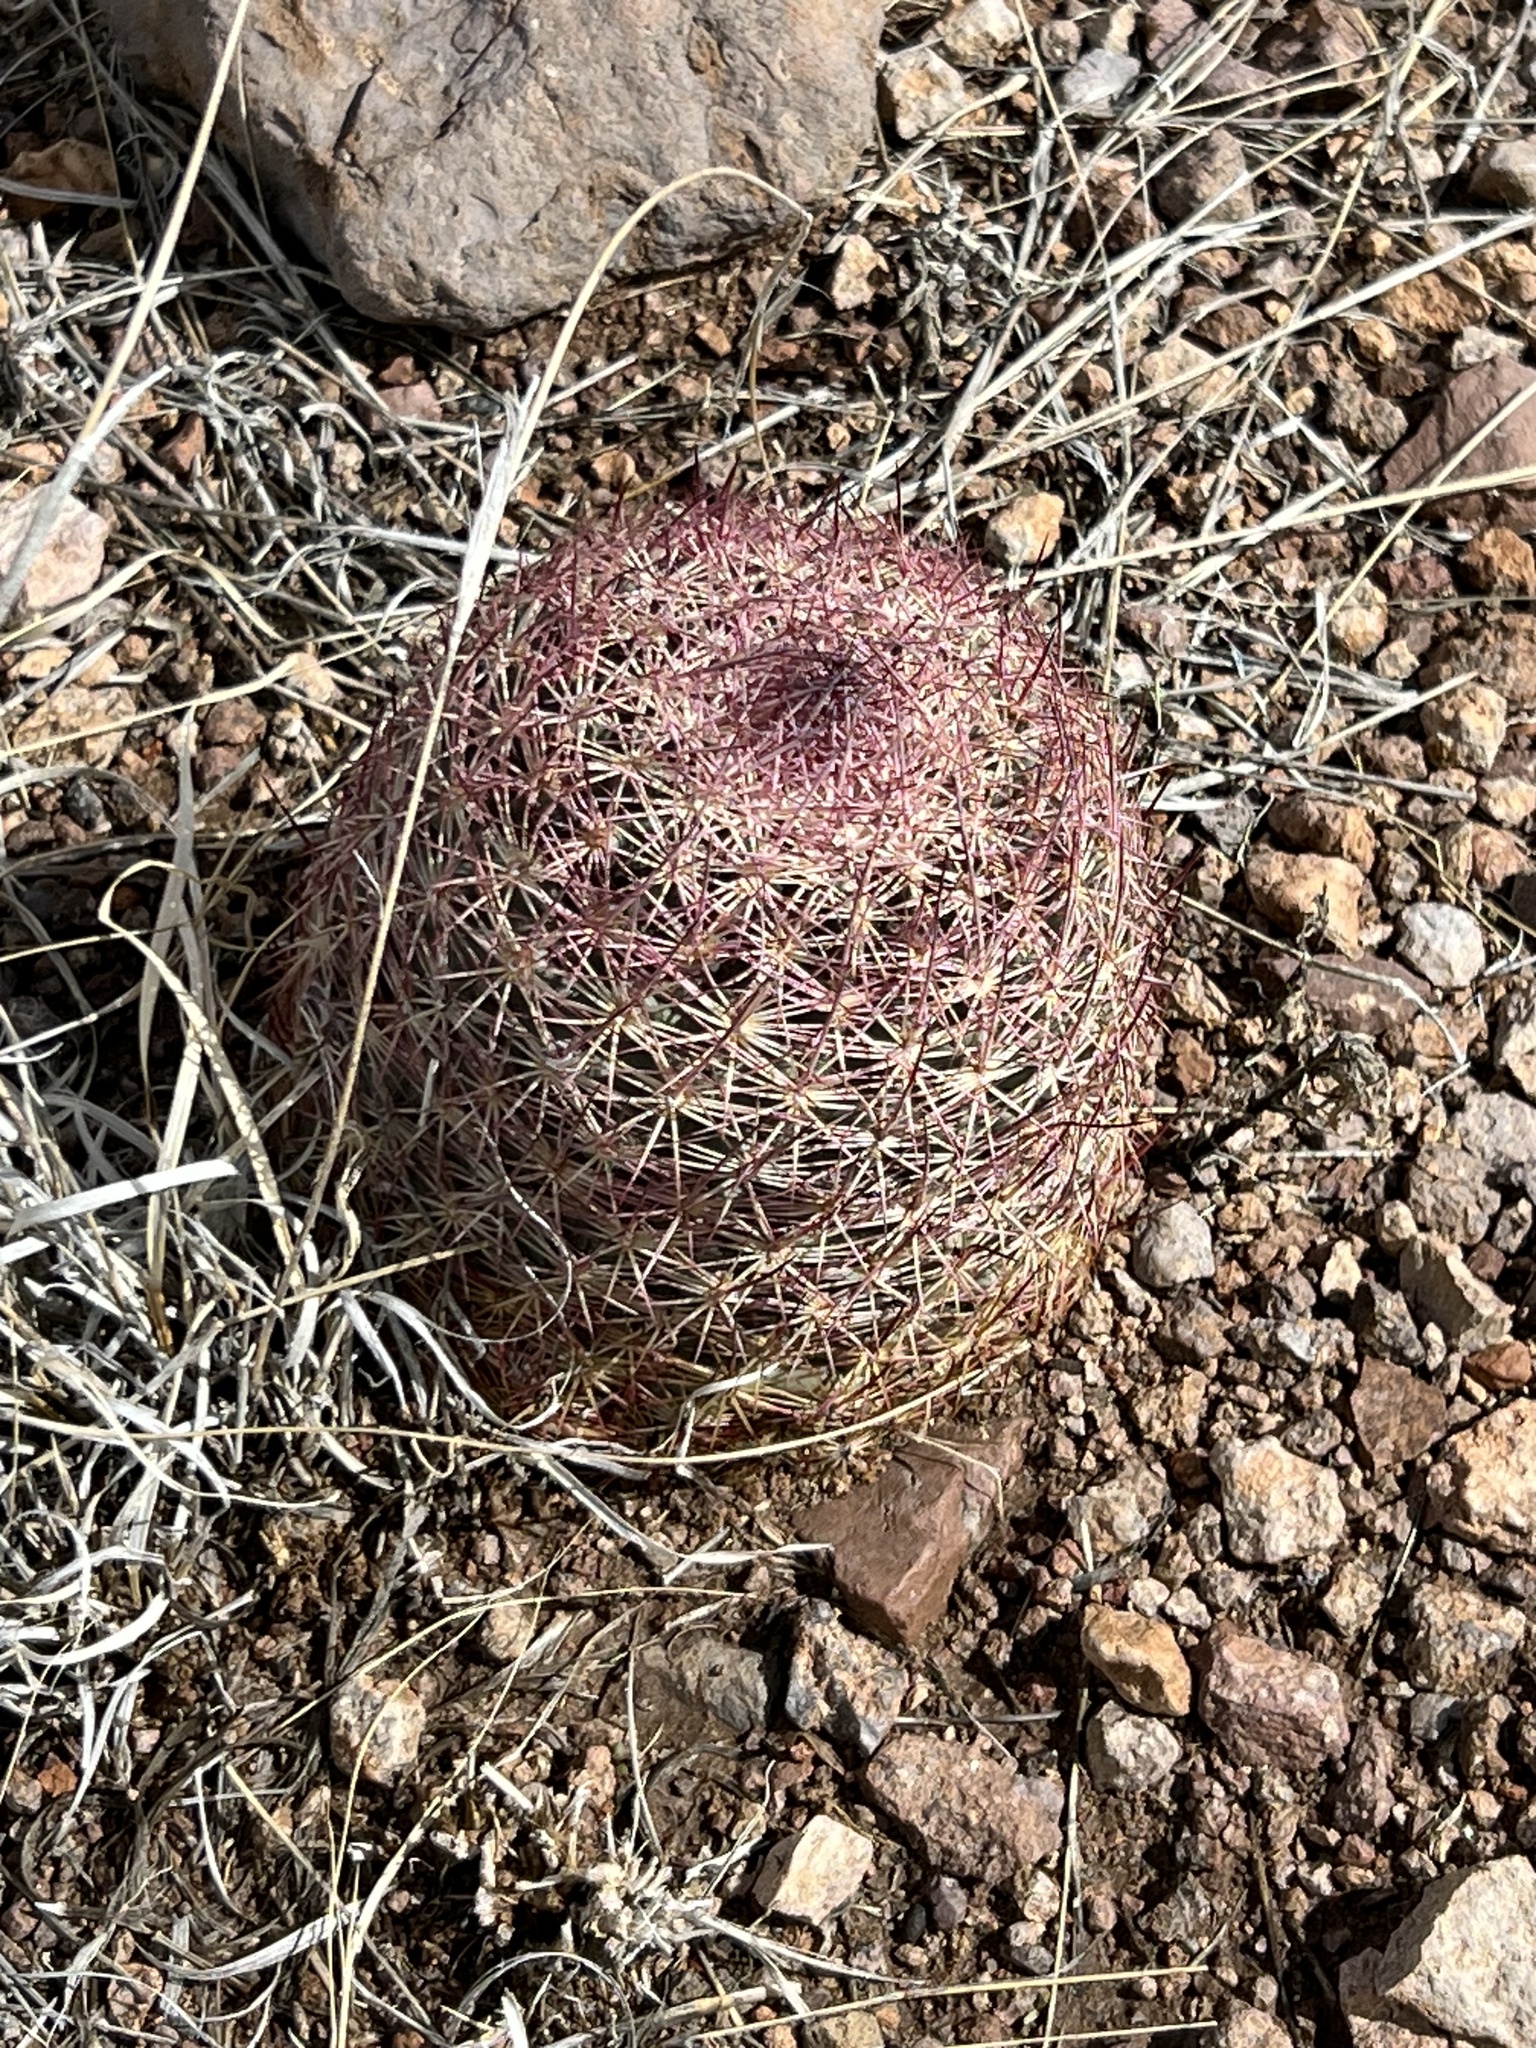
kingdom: Plantae
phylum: Tracheophyta
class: Magnoliopsida
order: Caryophyllales
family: Cactaceae
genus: Sclerocactus
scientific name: Sclerocactus johnsonii
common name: Eight-spine fishhook cactus
